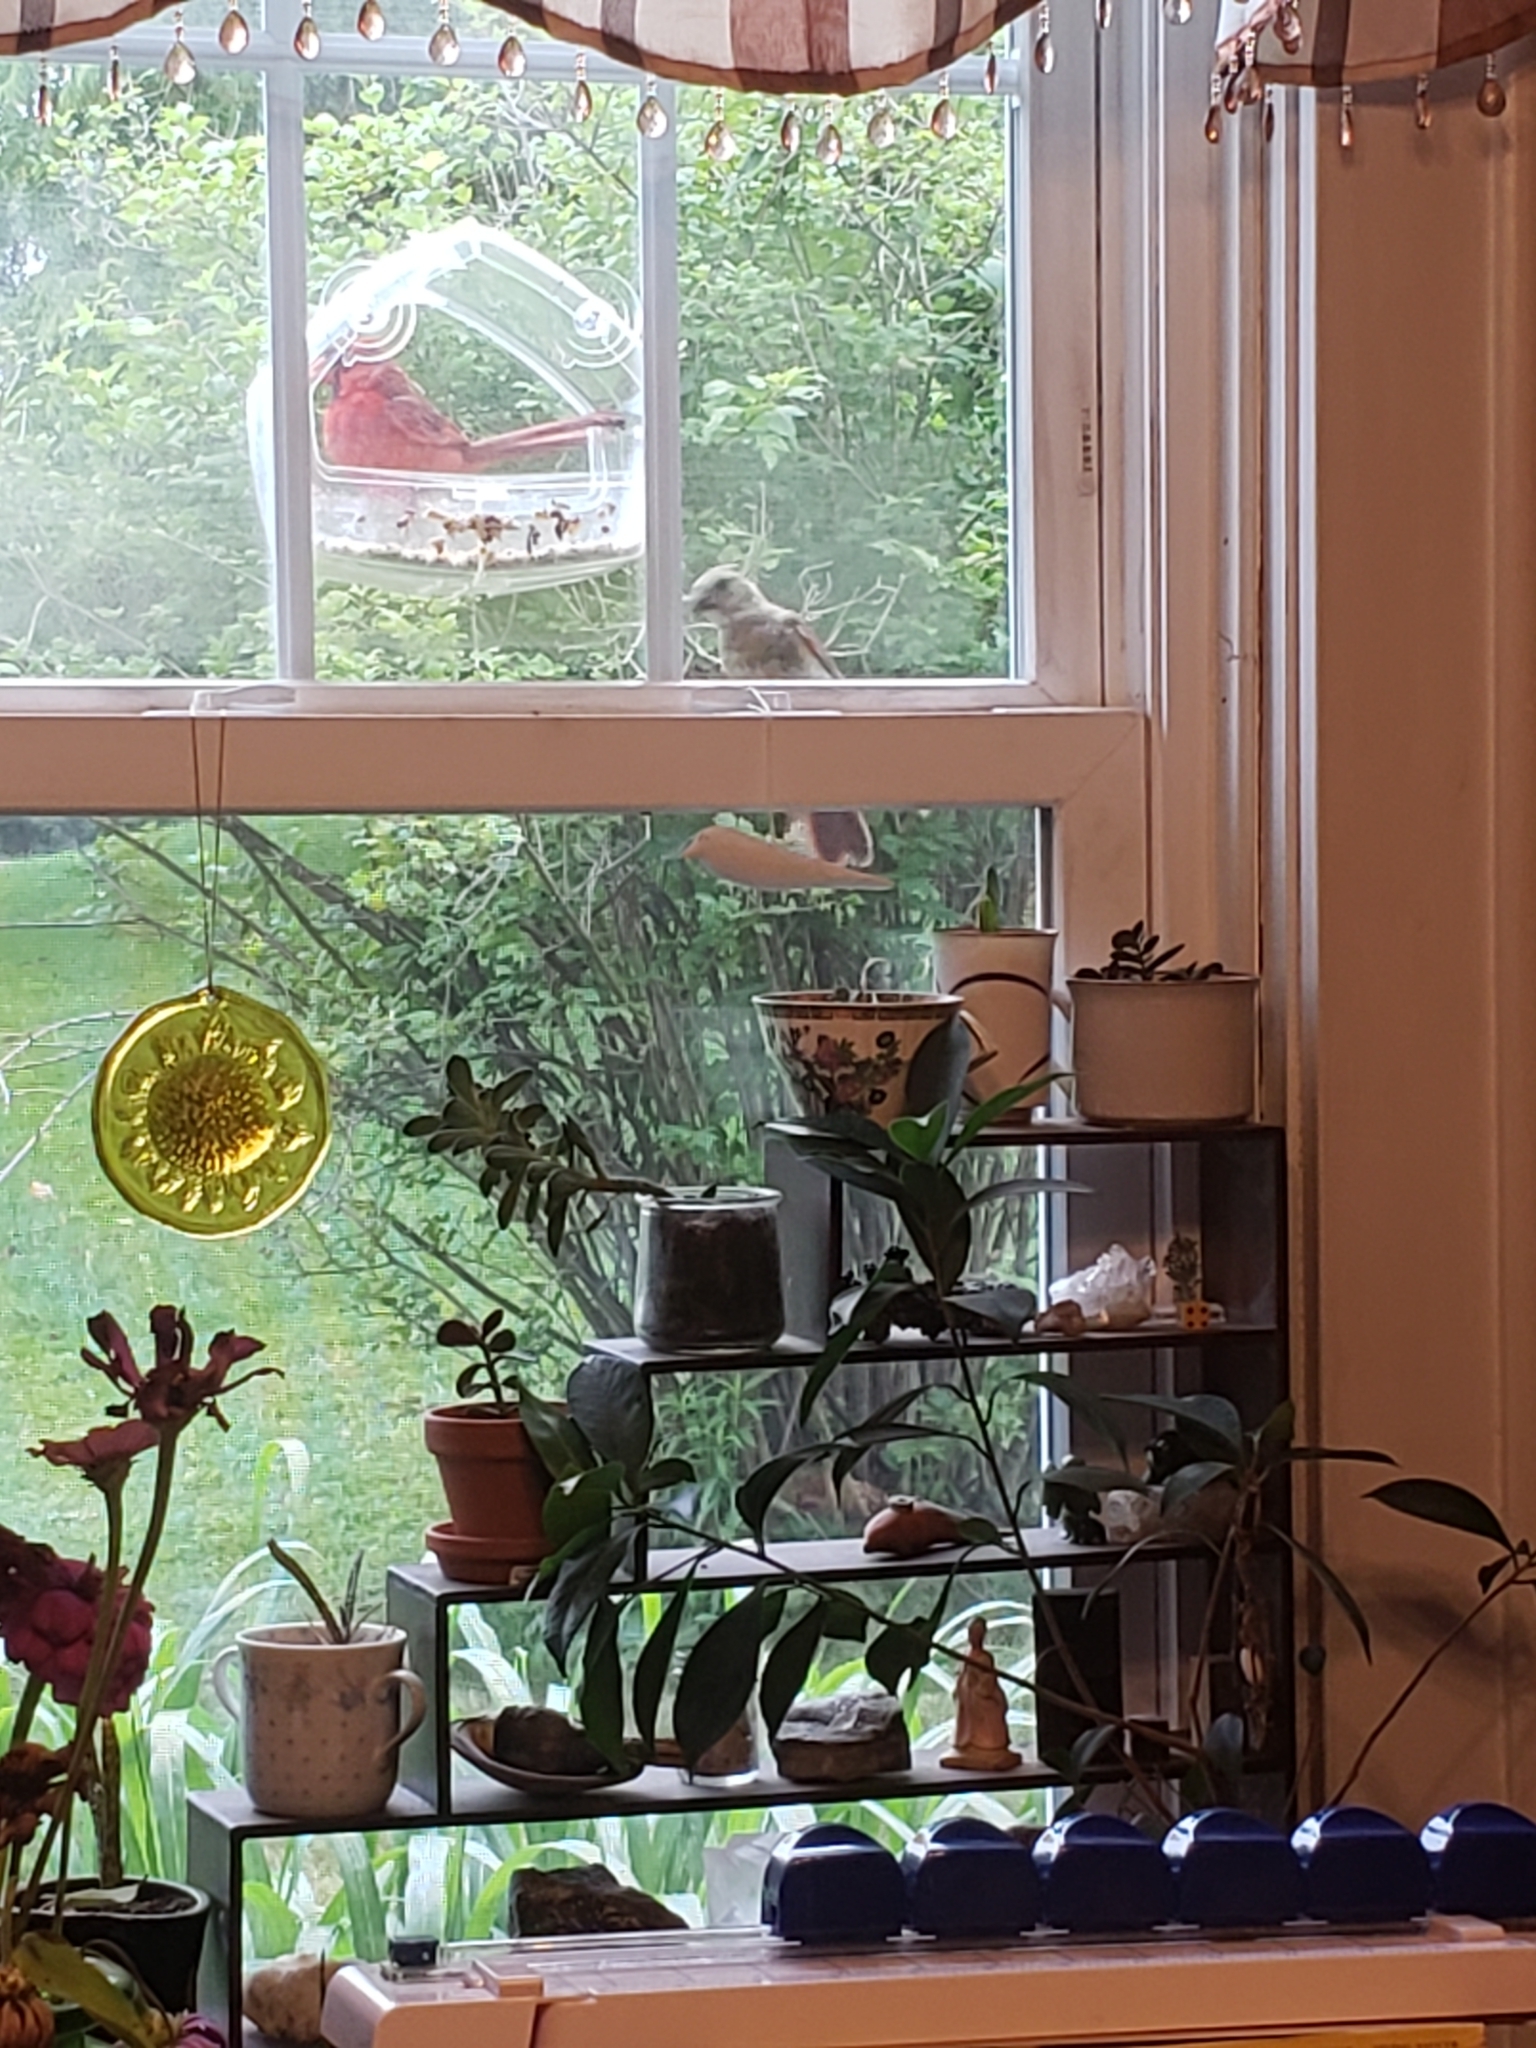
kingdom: Animalia
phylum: Chordata
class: Aves
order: Passeriformes
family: Cardinalidae
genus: Cardinalis
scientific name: Cardinalis cardinalis
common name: Northern cardinal
